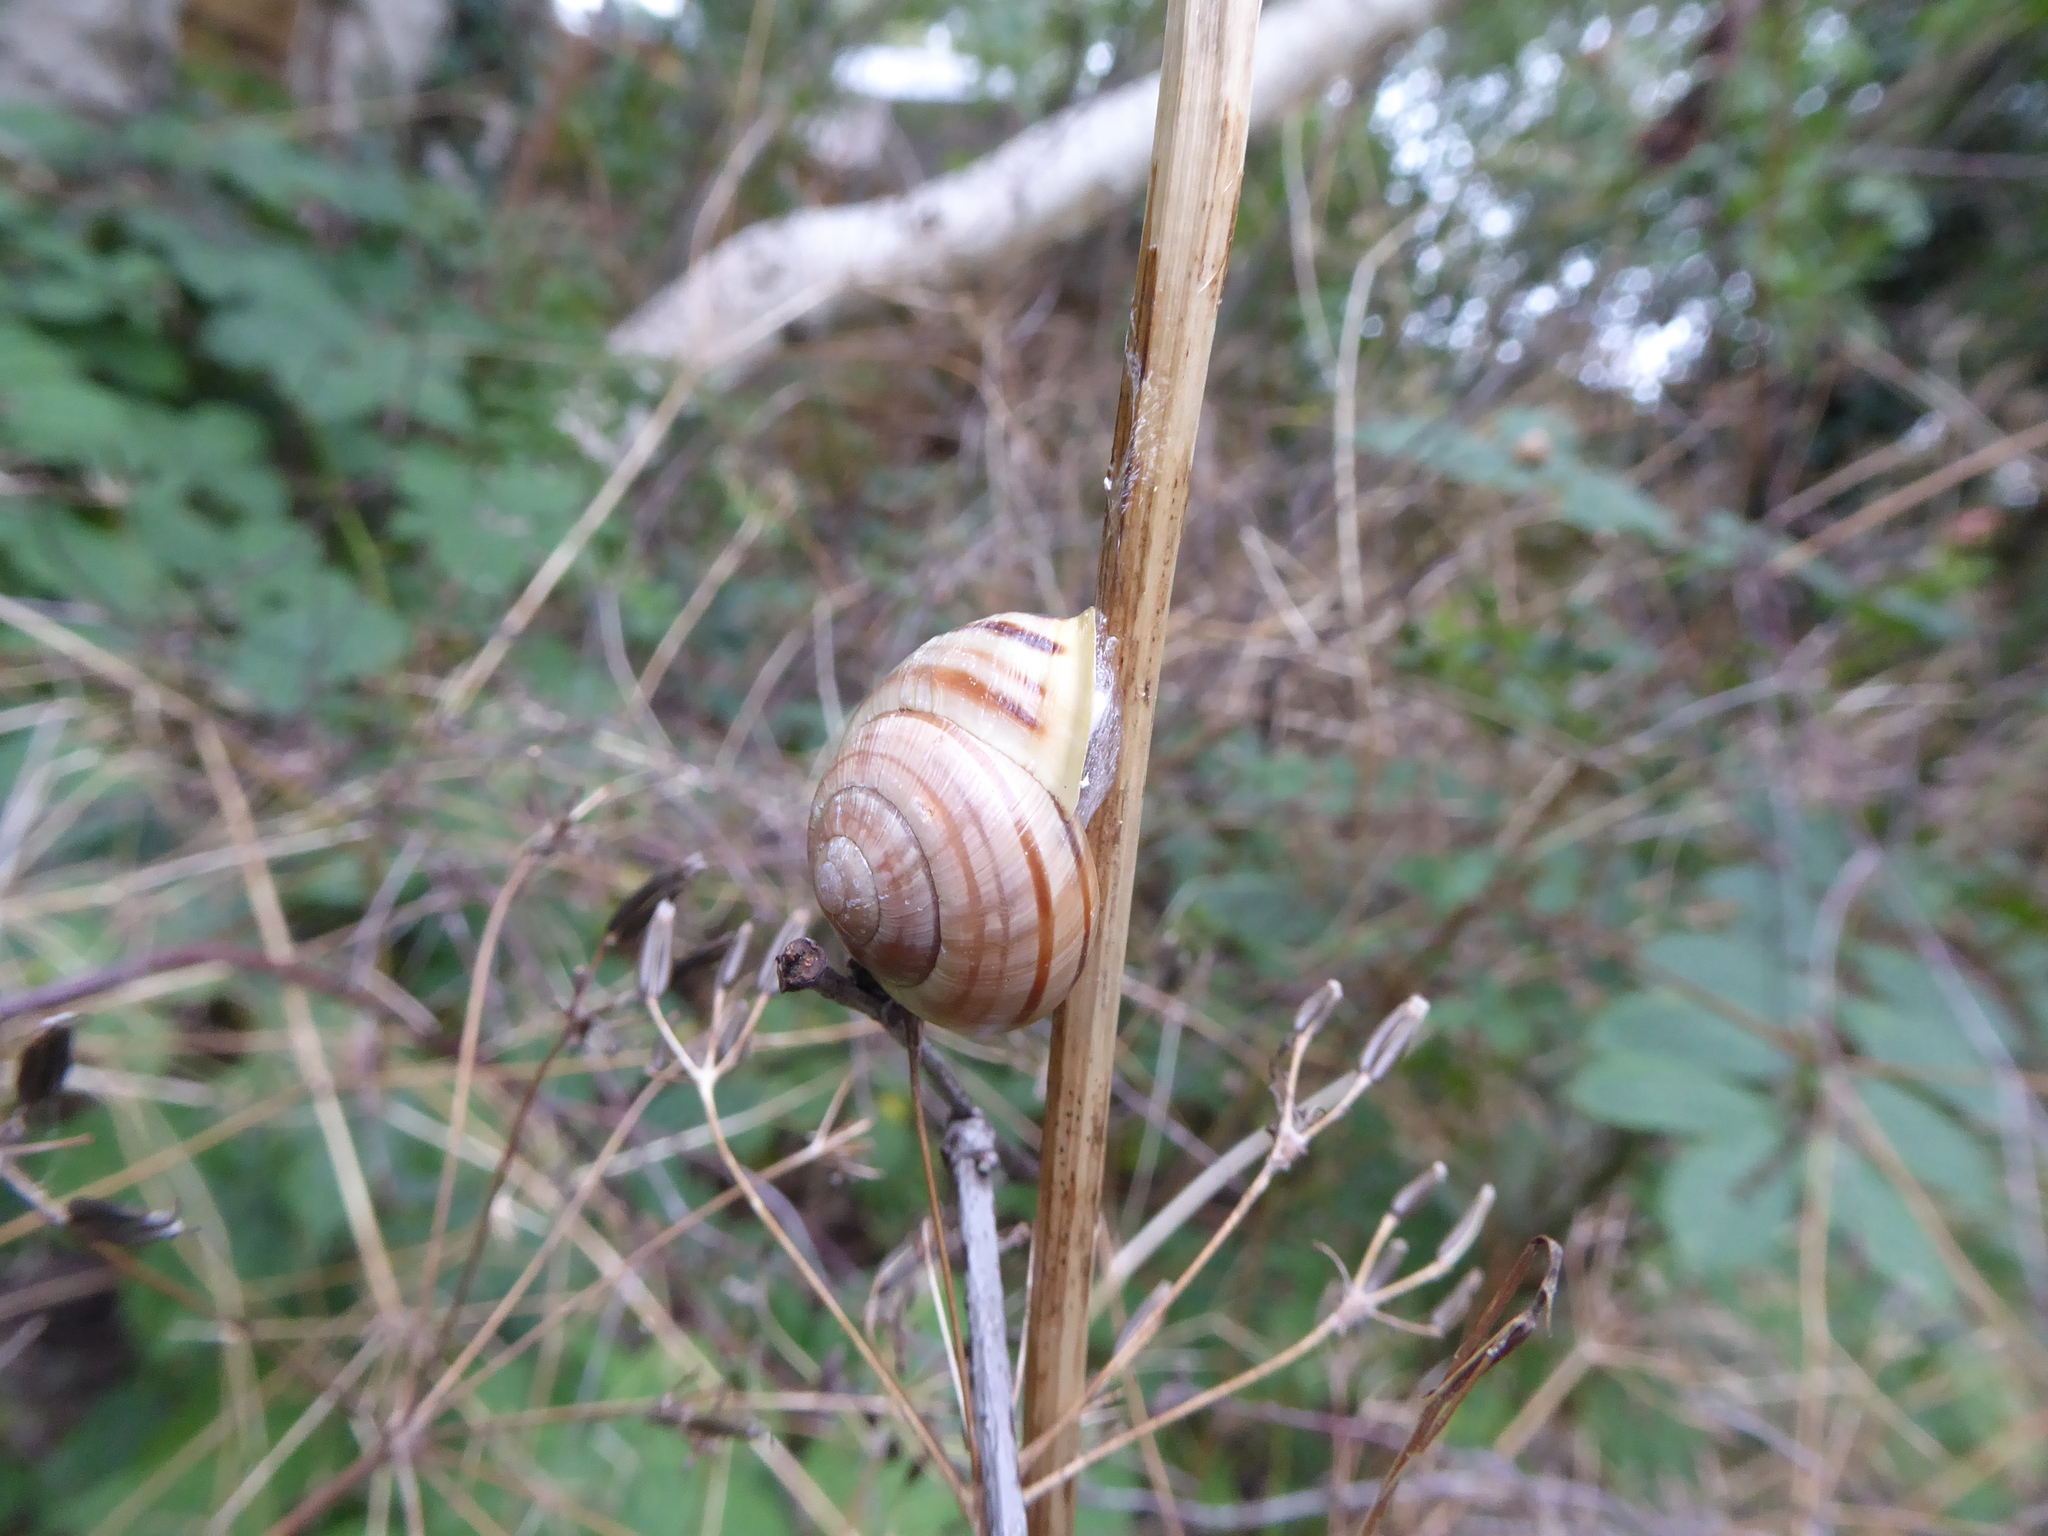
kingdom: Animalia
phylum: Mollusca
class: Gastropoda
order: Stylommatophora
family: Helicidae
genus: Cepaea
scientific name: Cepaea hortensis
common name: White-lip gardensnail
